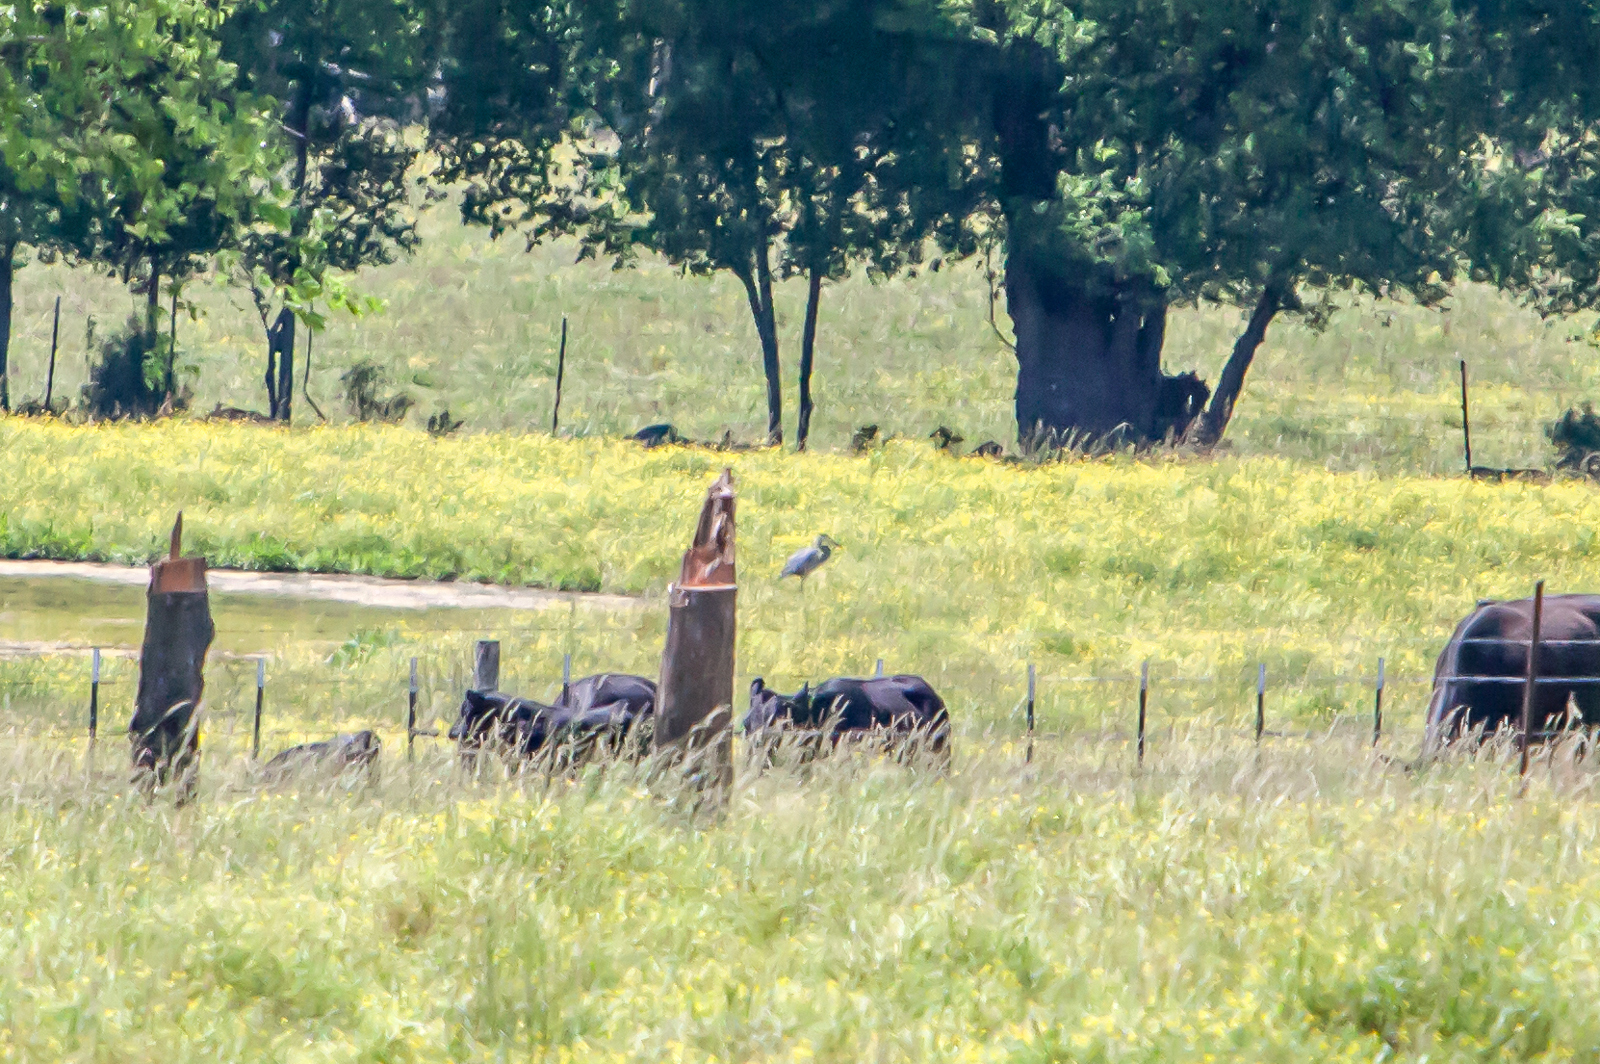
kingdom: Animalia
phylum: Chordata
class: Aves
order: Pelecaniformes
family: Ardeidae
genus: Ardea
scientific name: Ardea herodias
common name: Great blue heron
